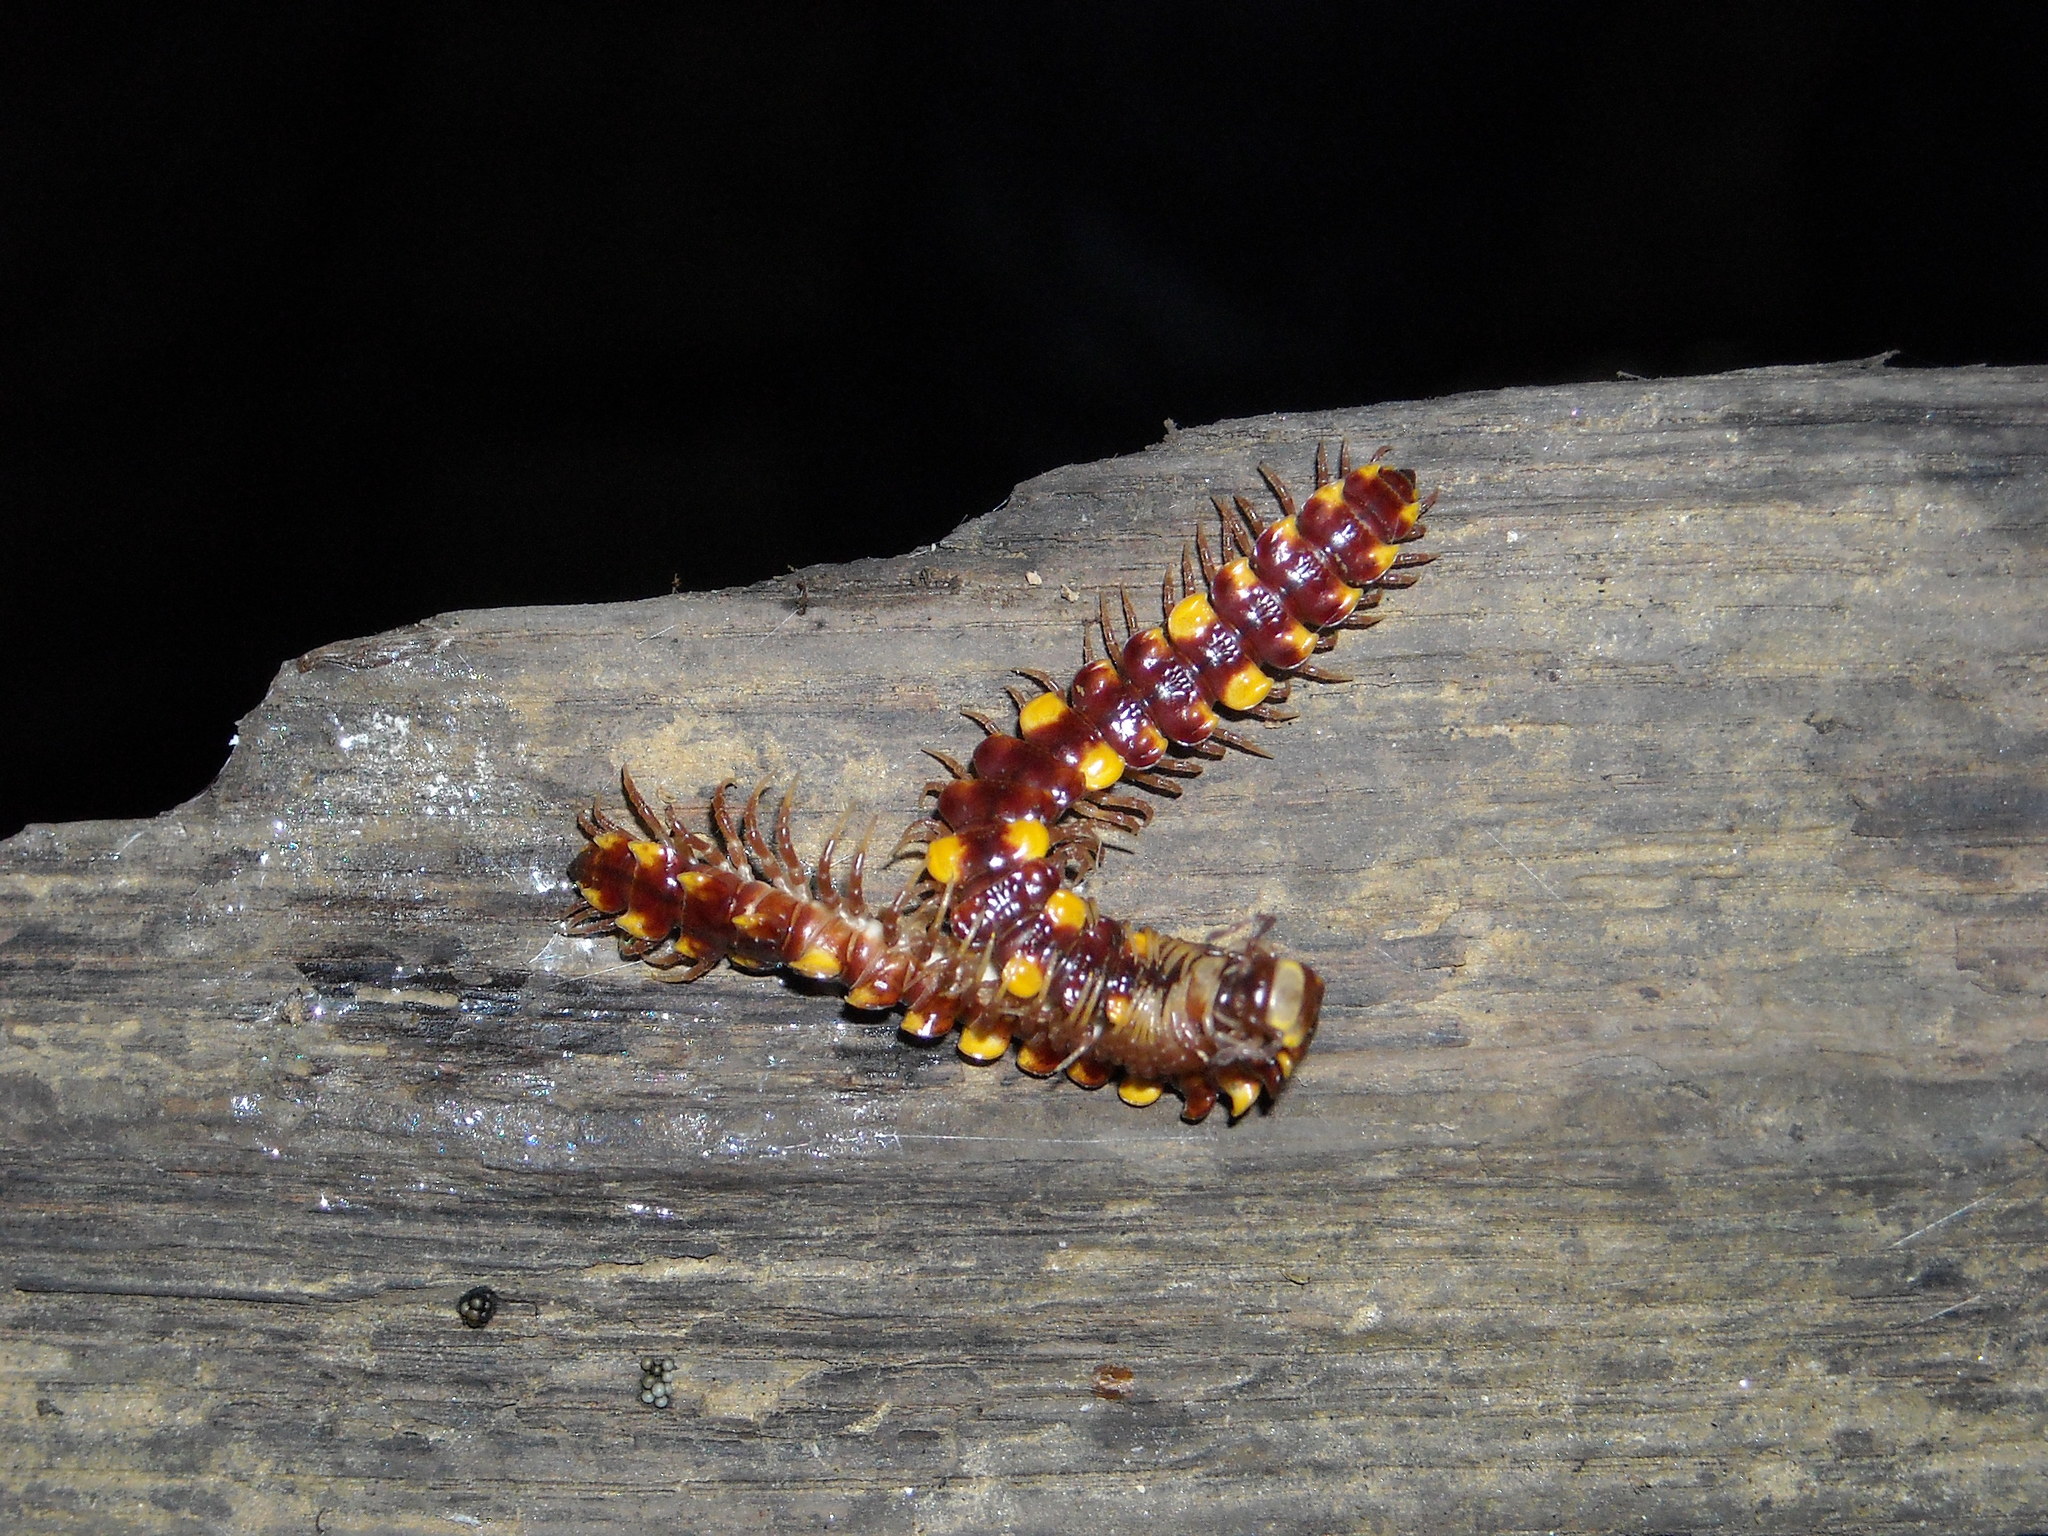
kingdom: Animalia
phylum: Arthropoda
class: Diplopoda
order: Polydesmida
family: Polydesmidae
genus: Polydesmus
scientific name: Polydesmus collaris
